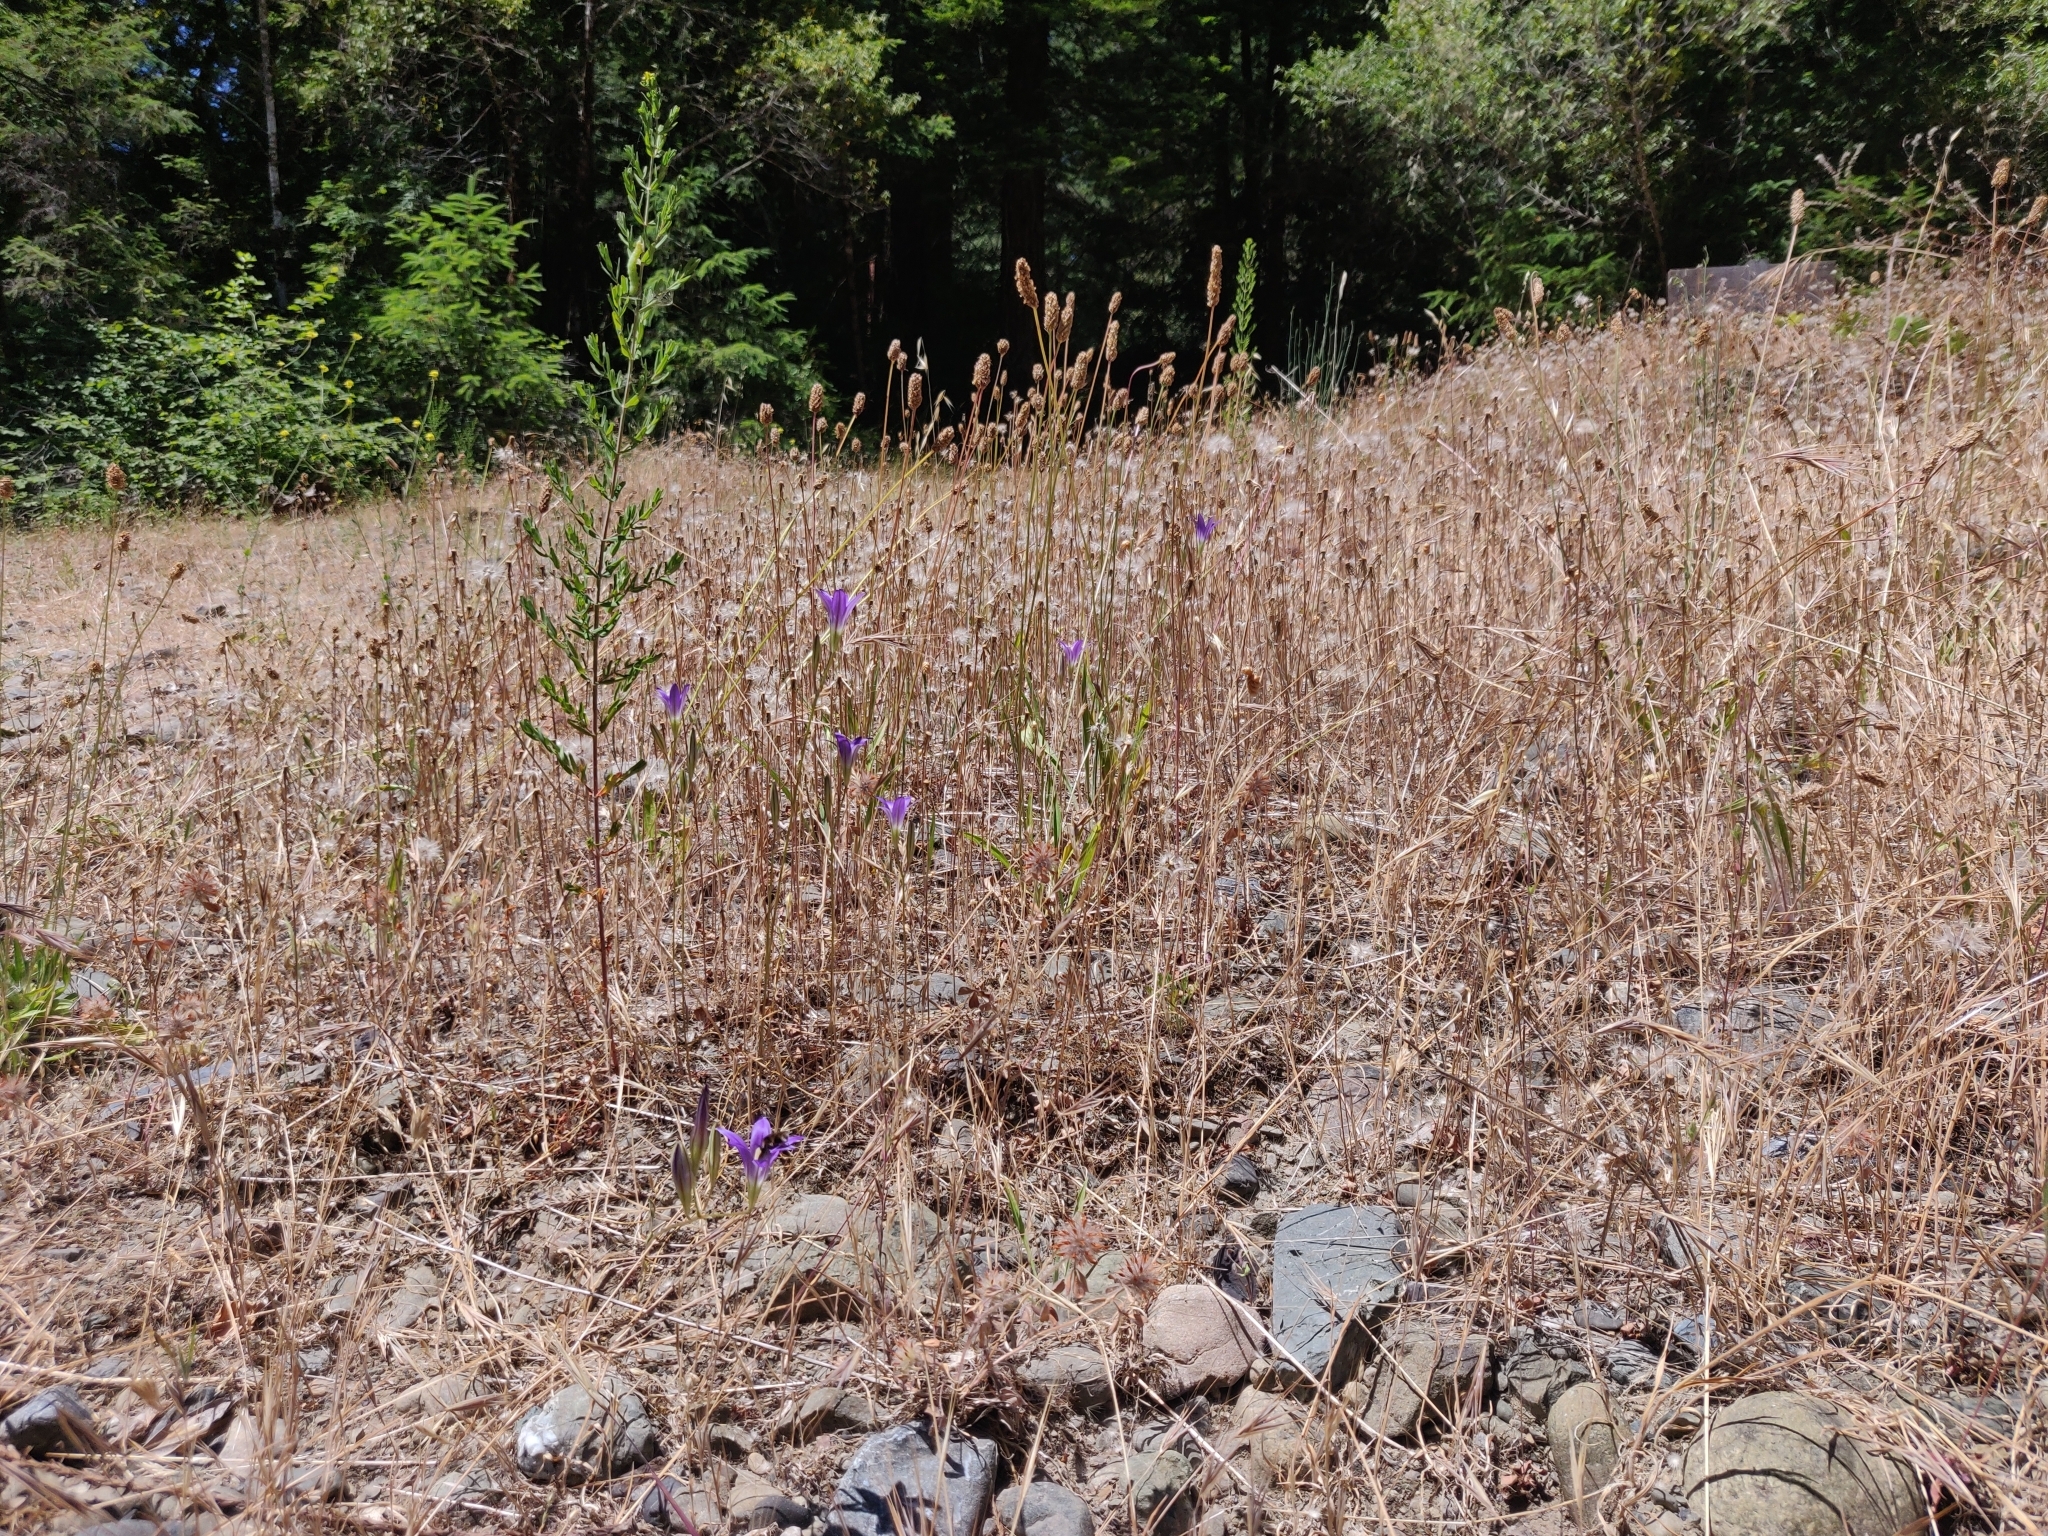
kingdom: Plantae
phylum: Tracheophyta
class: Liliopsida
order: Asparagales
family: Asparagaceae
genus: Brodiaea
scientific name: Brodiaea elegans
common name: Elegant cluster-lily
